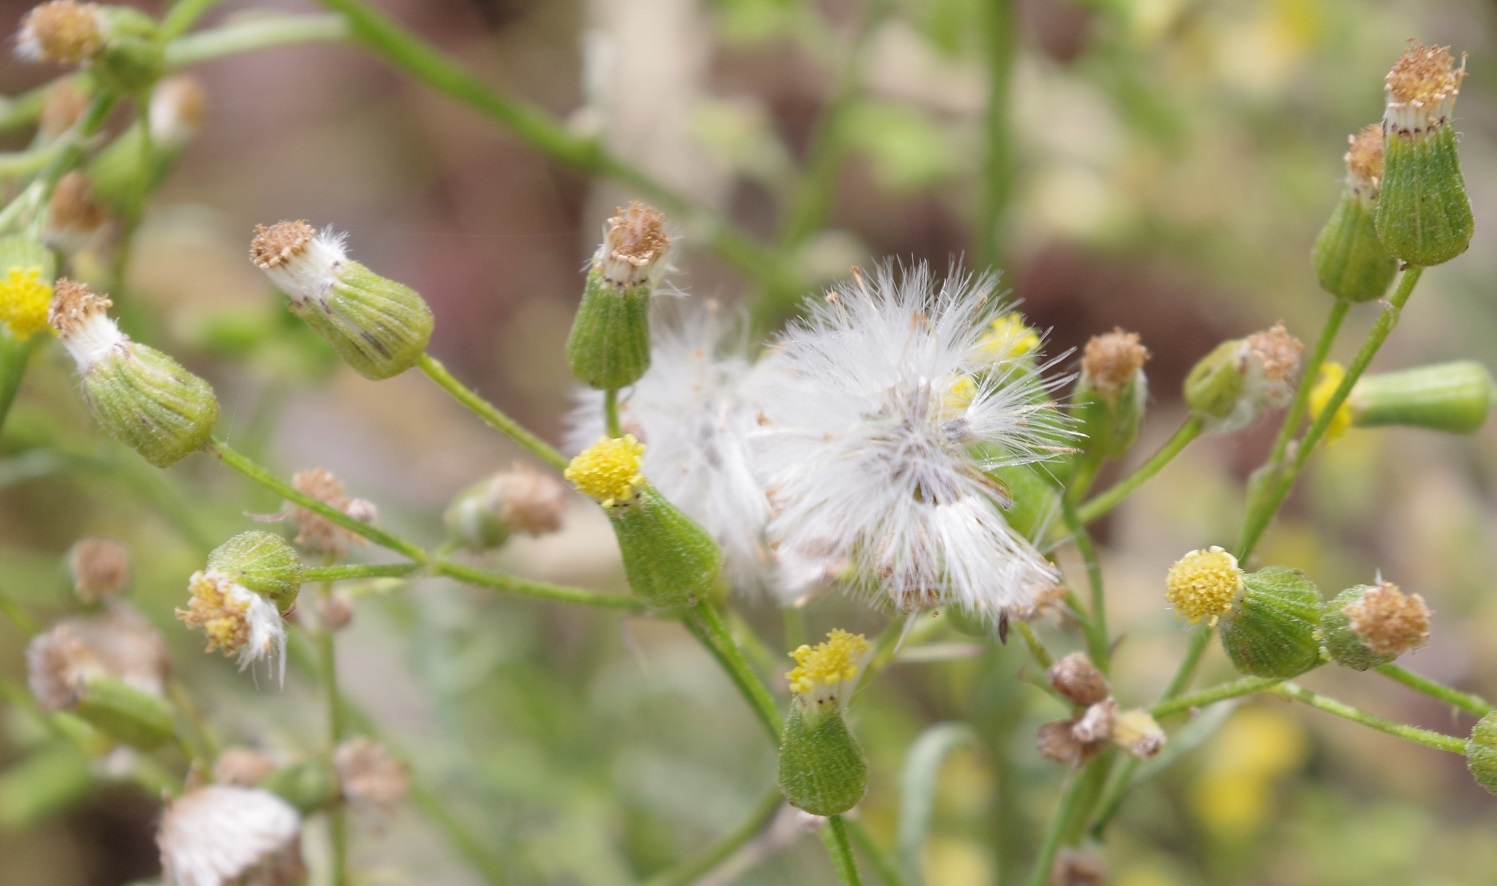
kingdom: Plantae
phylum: Tracheophyta
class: Magnoliopsida
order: Asterales
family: Asteraceae
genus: Senecio
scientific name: Senecio sylvaticus
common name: Woodland ragwort
